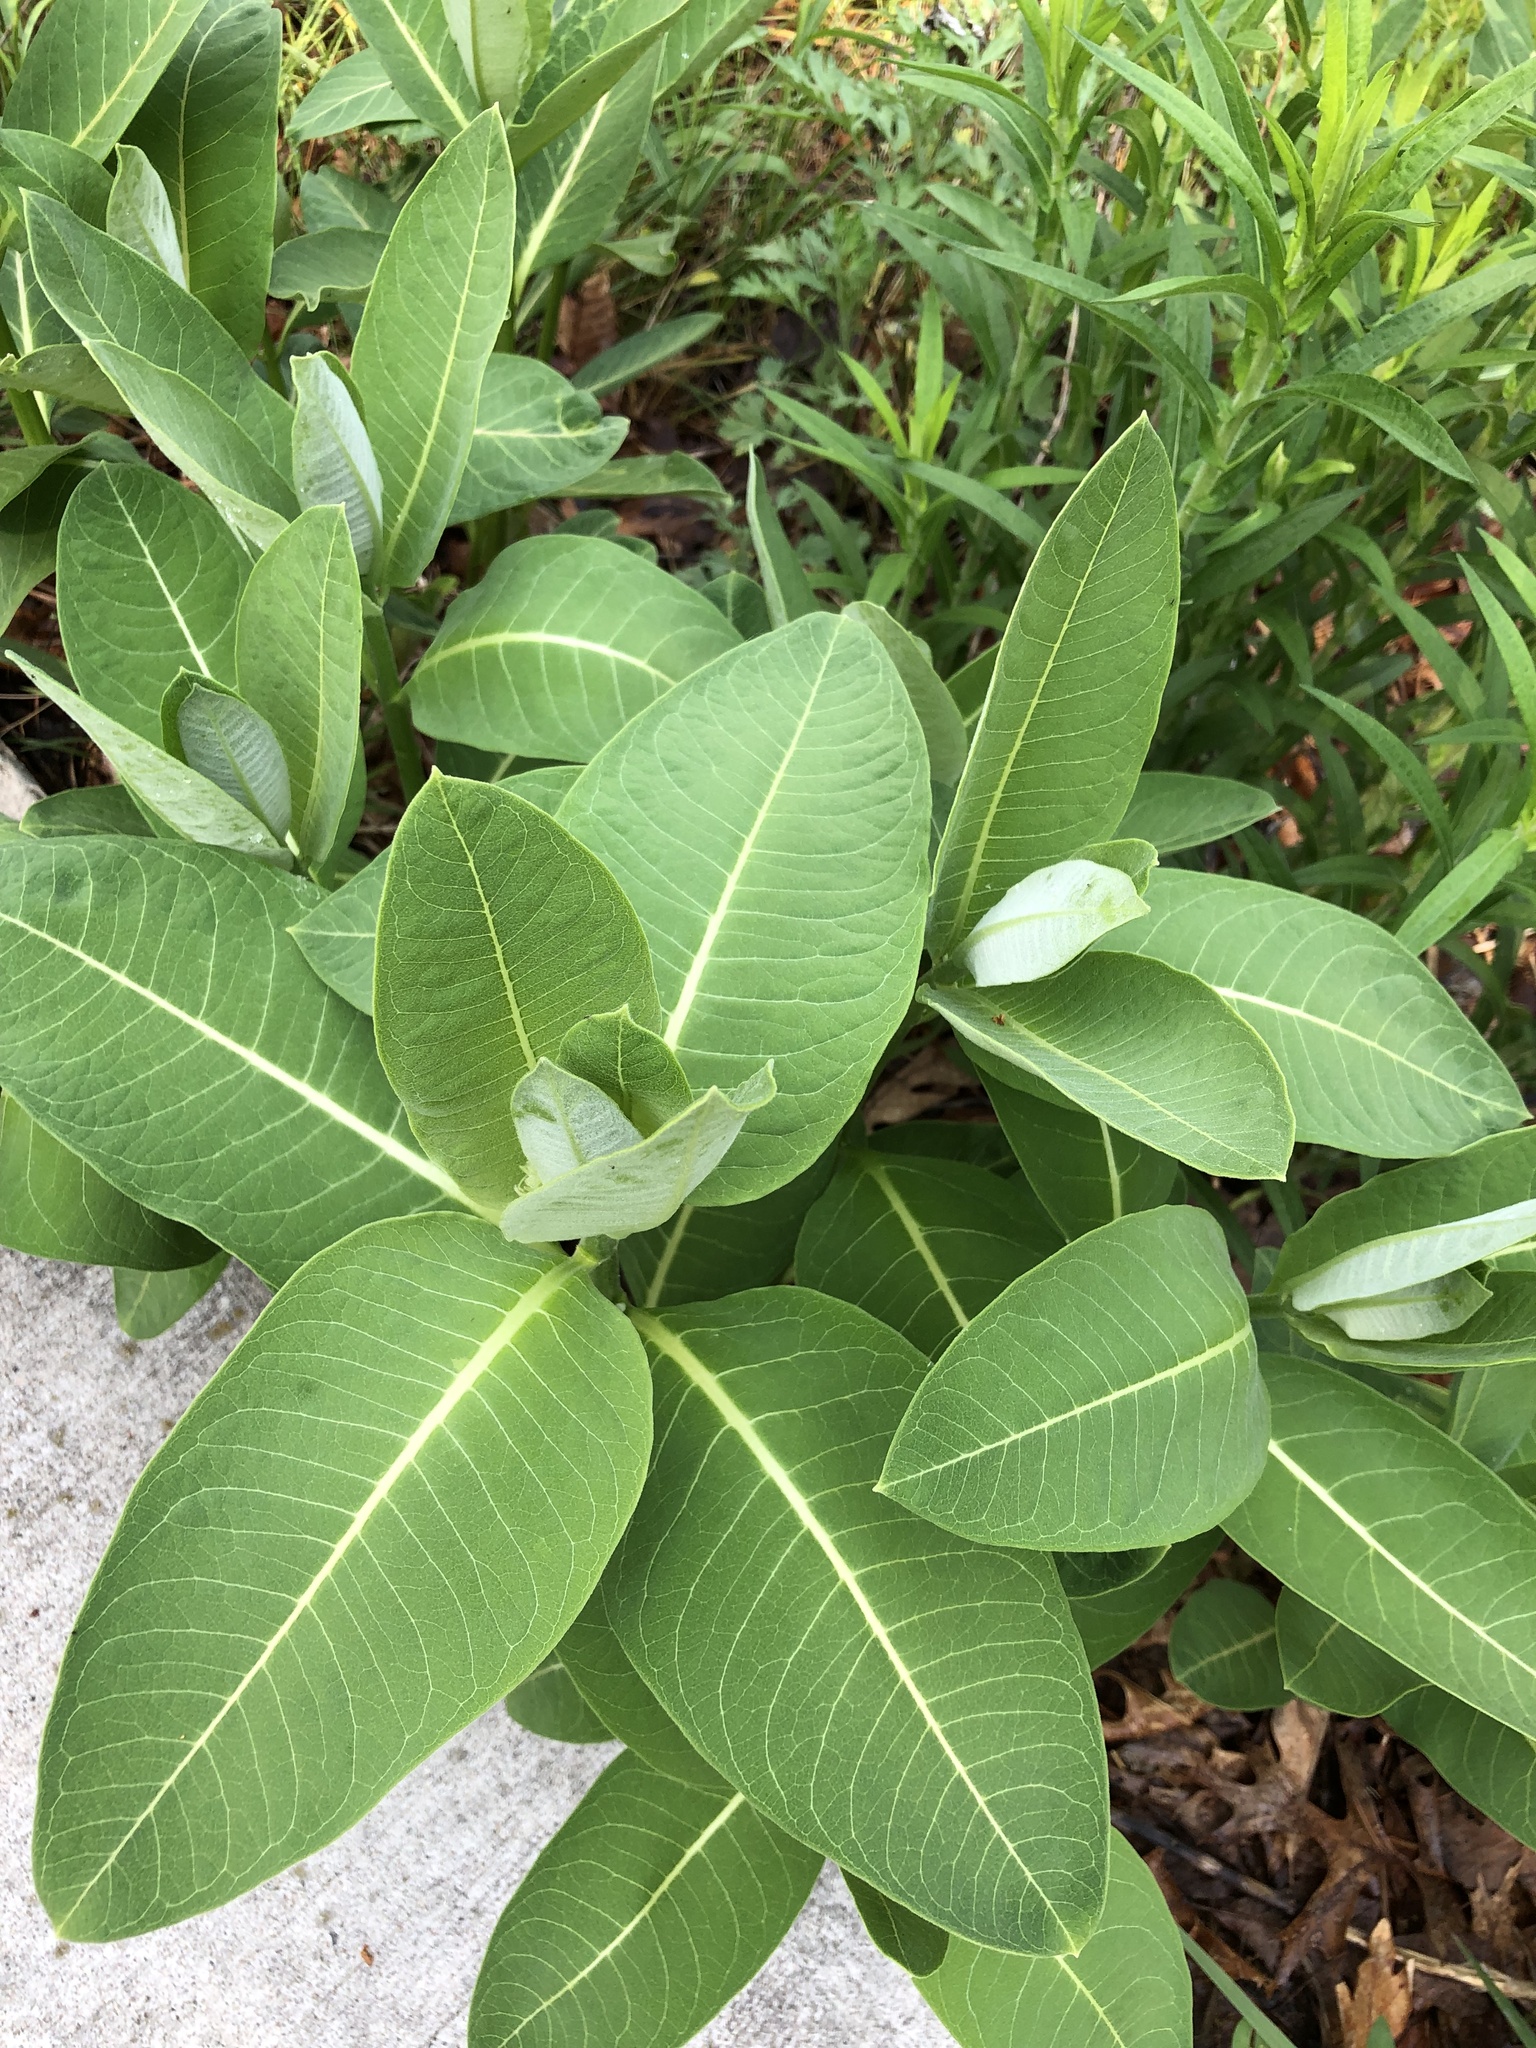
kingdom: Plantae
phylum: Tracheophyta
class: Magnoliopsida
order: Gentianales
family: Apocynaceae
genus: Asclepias
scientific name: Asclepias syriaca
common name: Common milkweed
